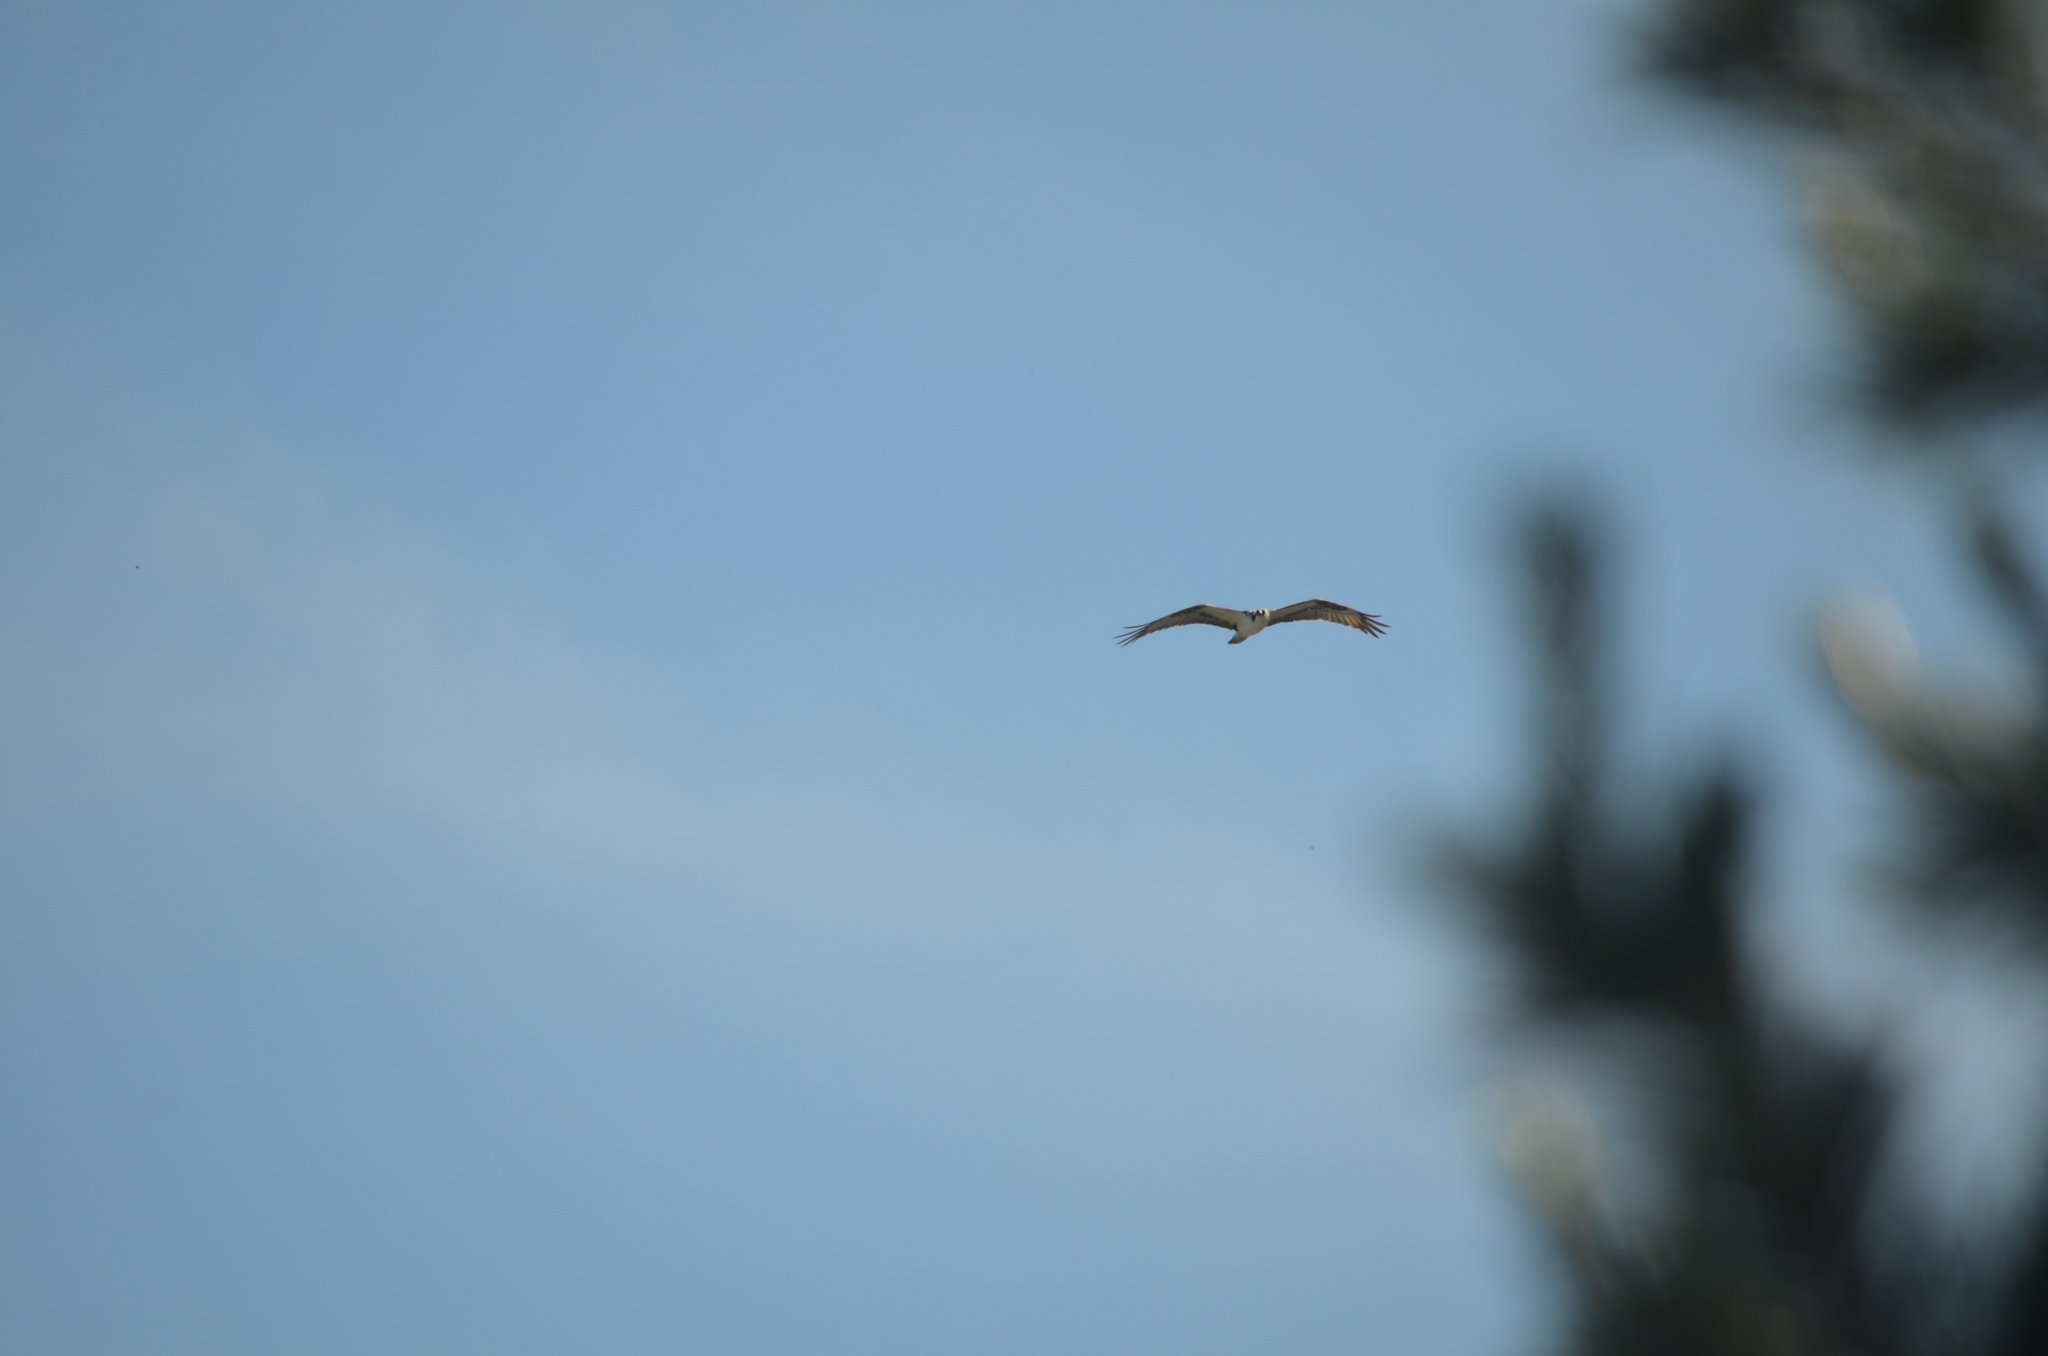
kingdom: Animalia
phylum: Chordata
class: Aves
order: Accipitriformes
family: Pandionidae
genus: Pandion
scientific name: Pandion haliaetus
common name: Osprey
